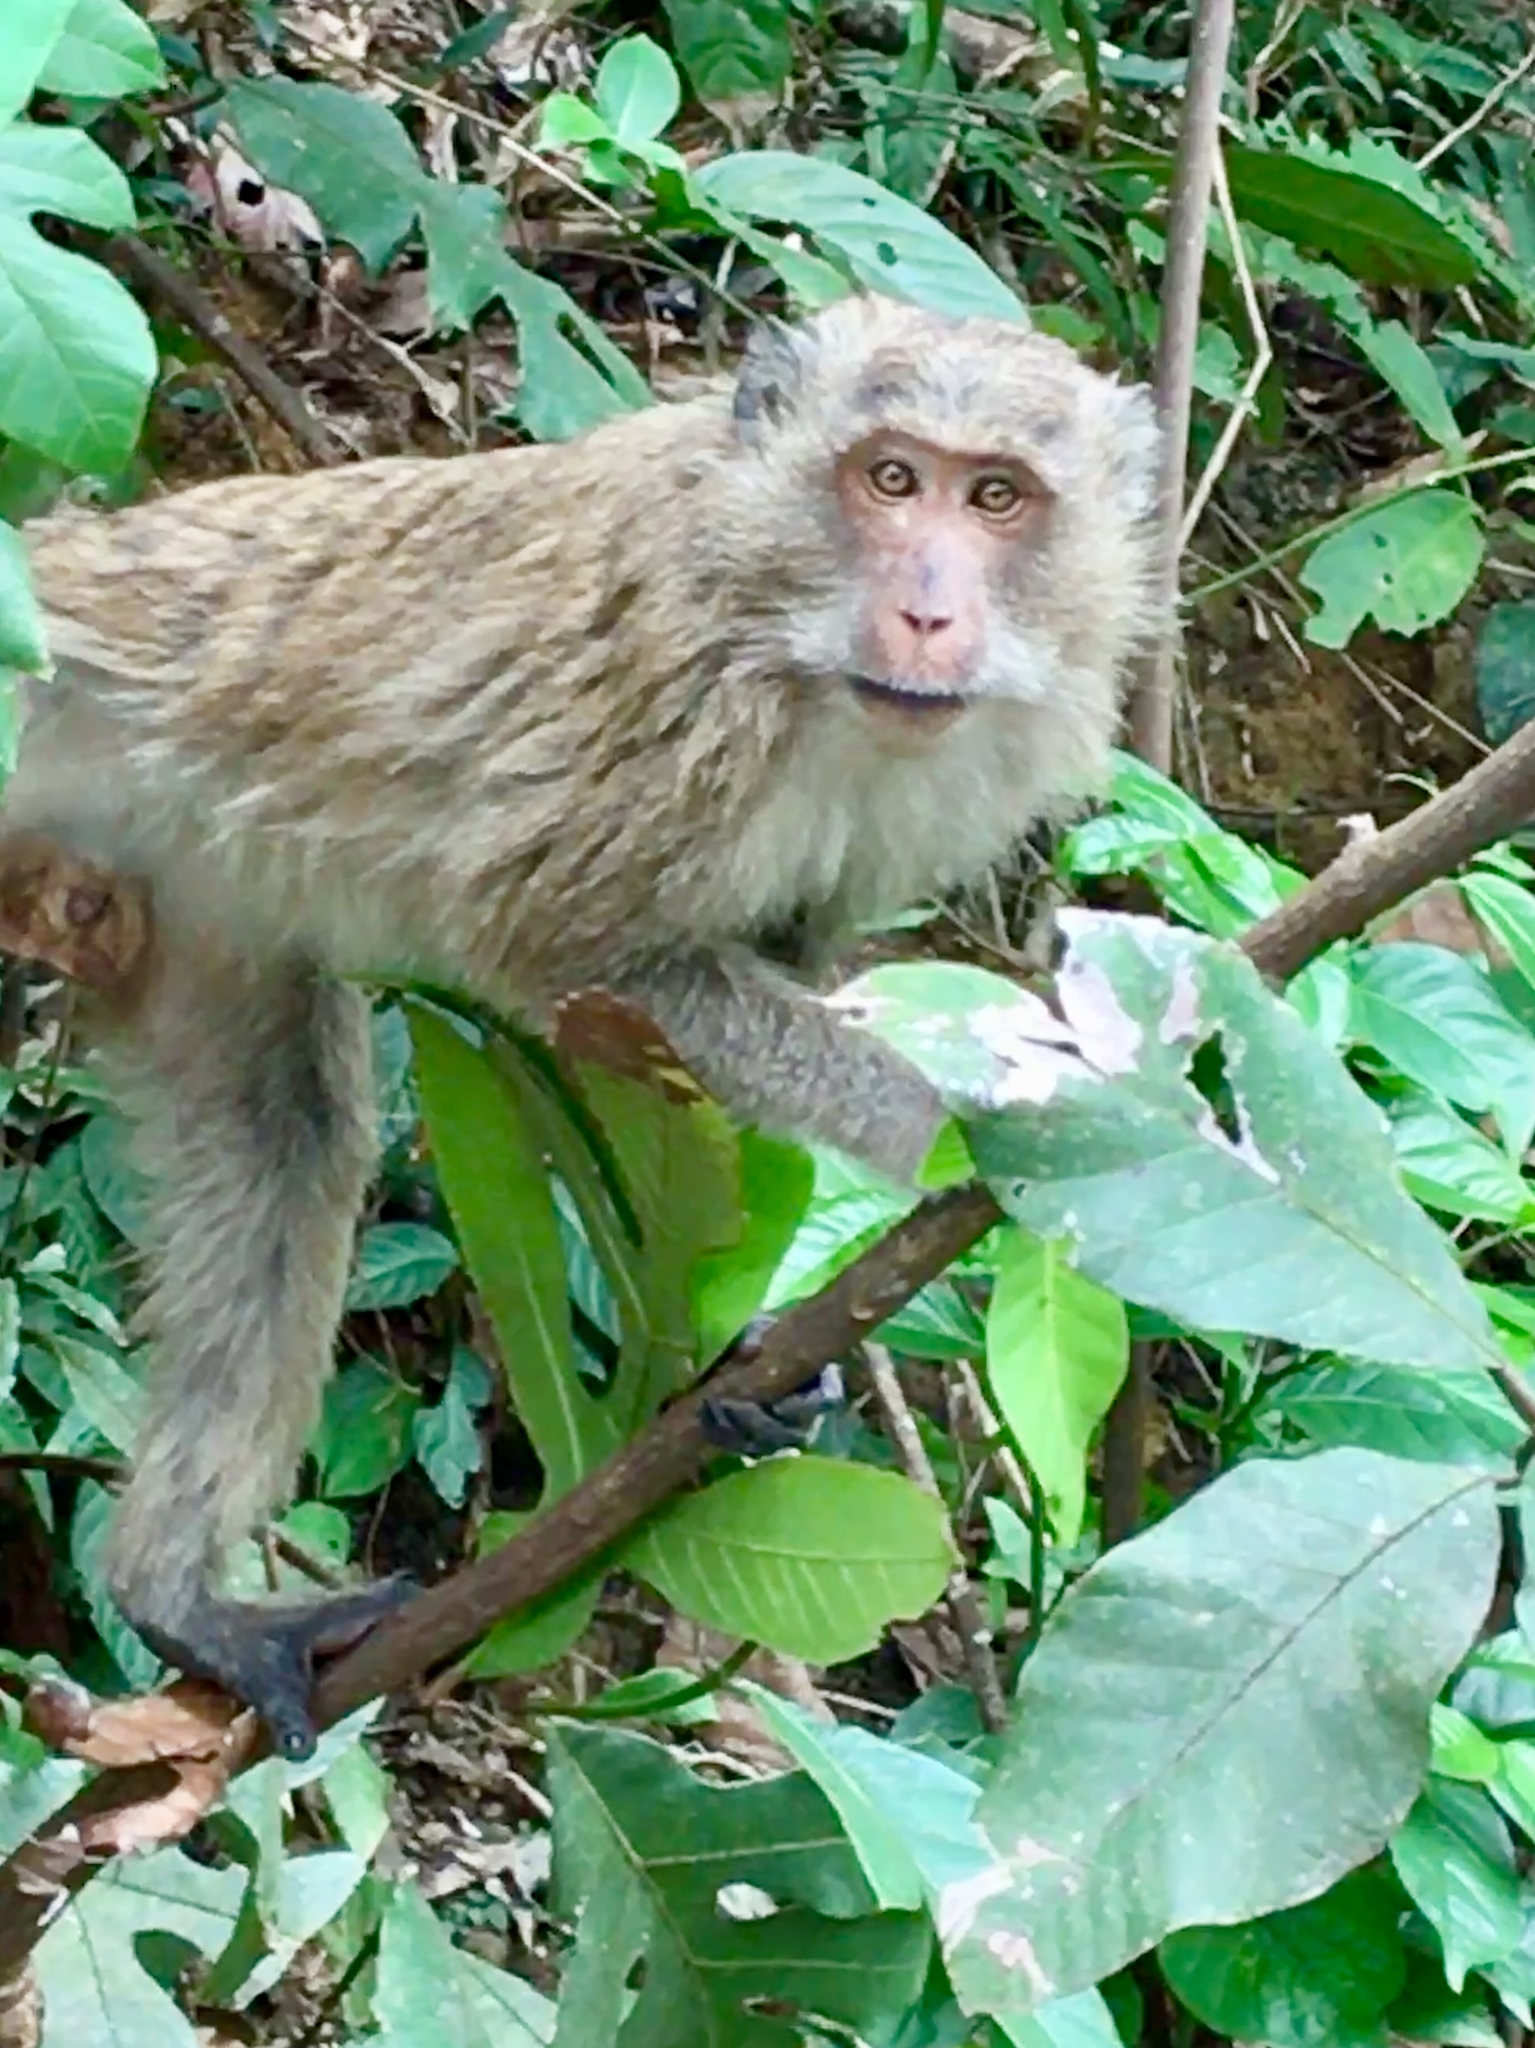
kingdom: Animalia
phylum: Chordata
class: Mammalia
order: Primates
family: Cercopithecidae
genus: Macaca
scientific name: Macaca fascicularis
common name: Crab-eating macaque
